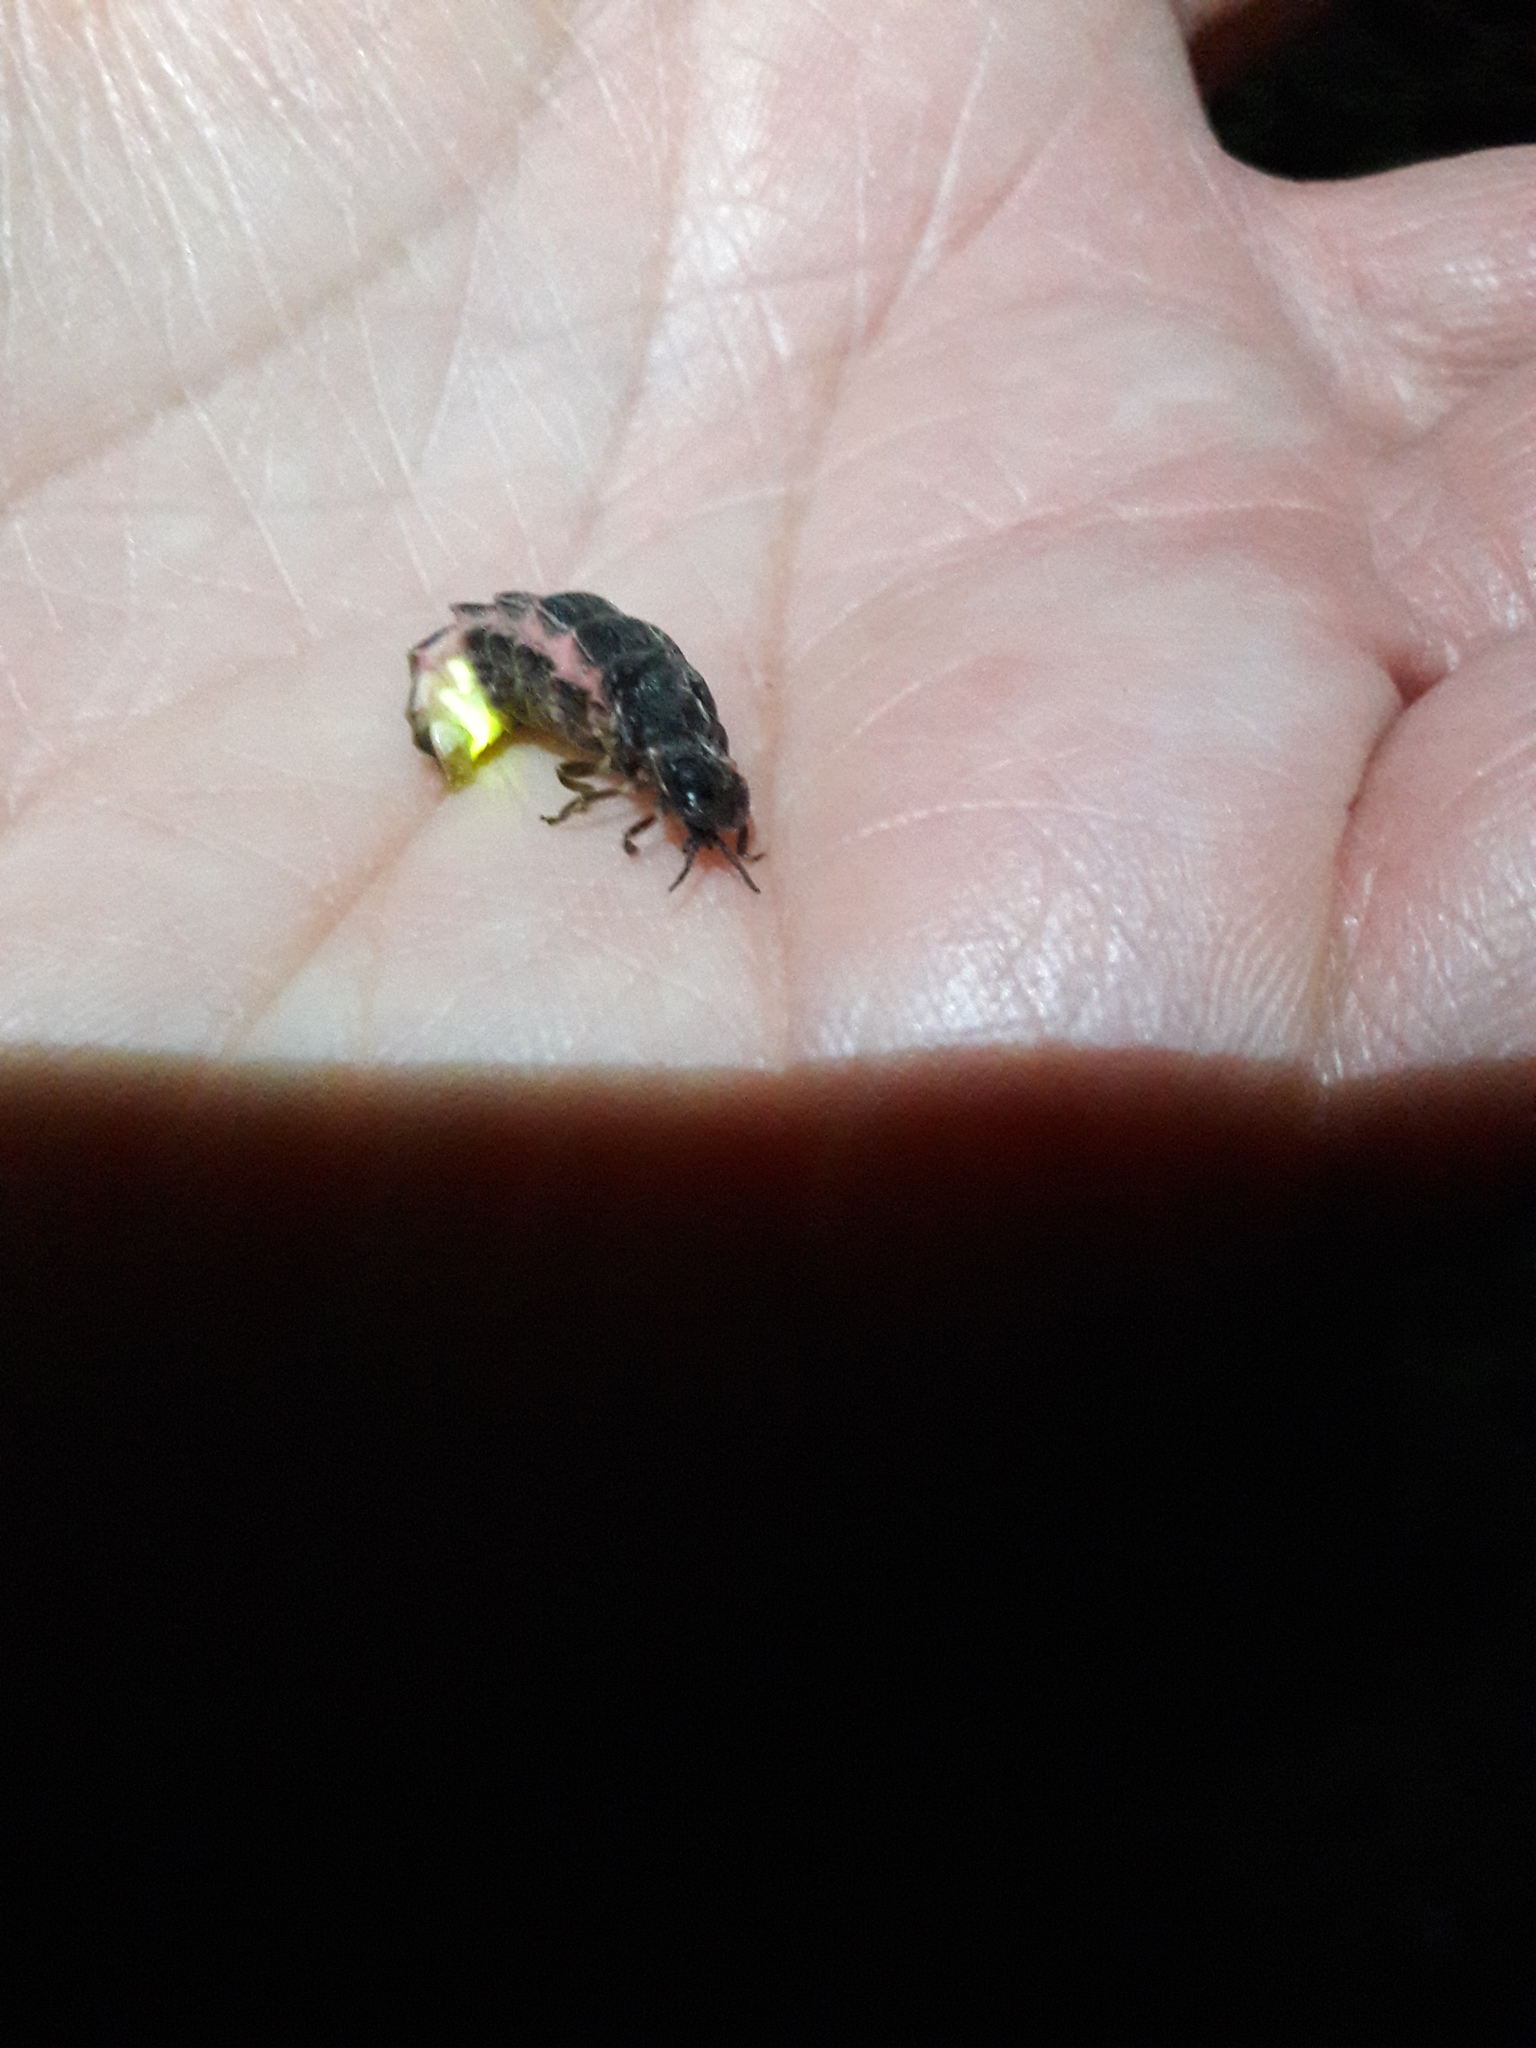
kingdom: Animalia
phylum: Arthropoda
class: Insecta
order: Coleoptera
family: Lampyridae
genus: Lampyris
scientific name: Lampyris noctiluca
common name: Glow-worm
